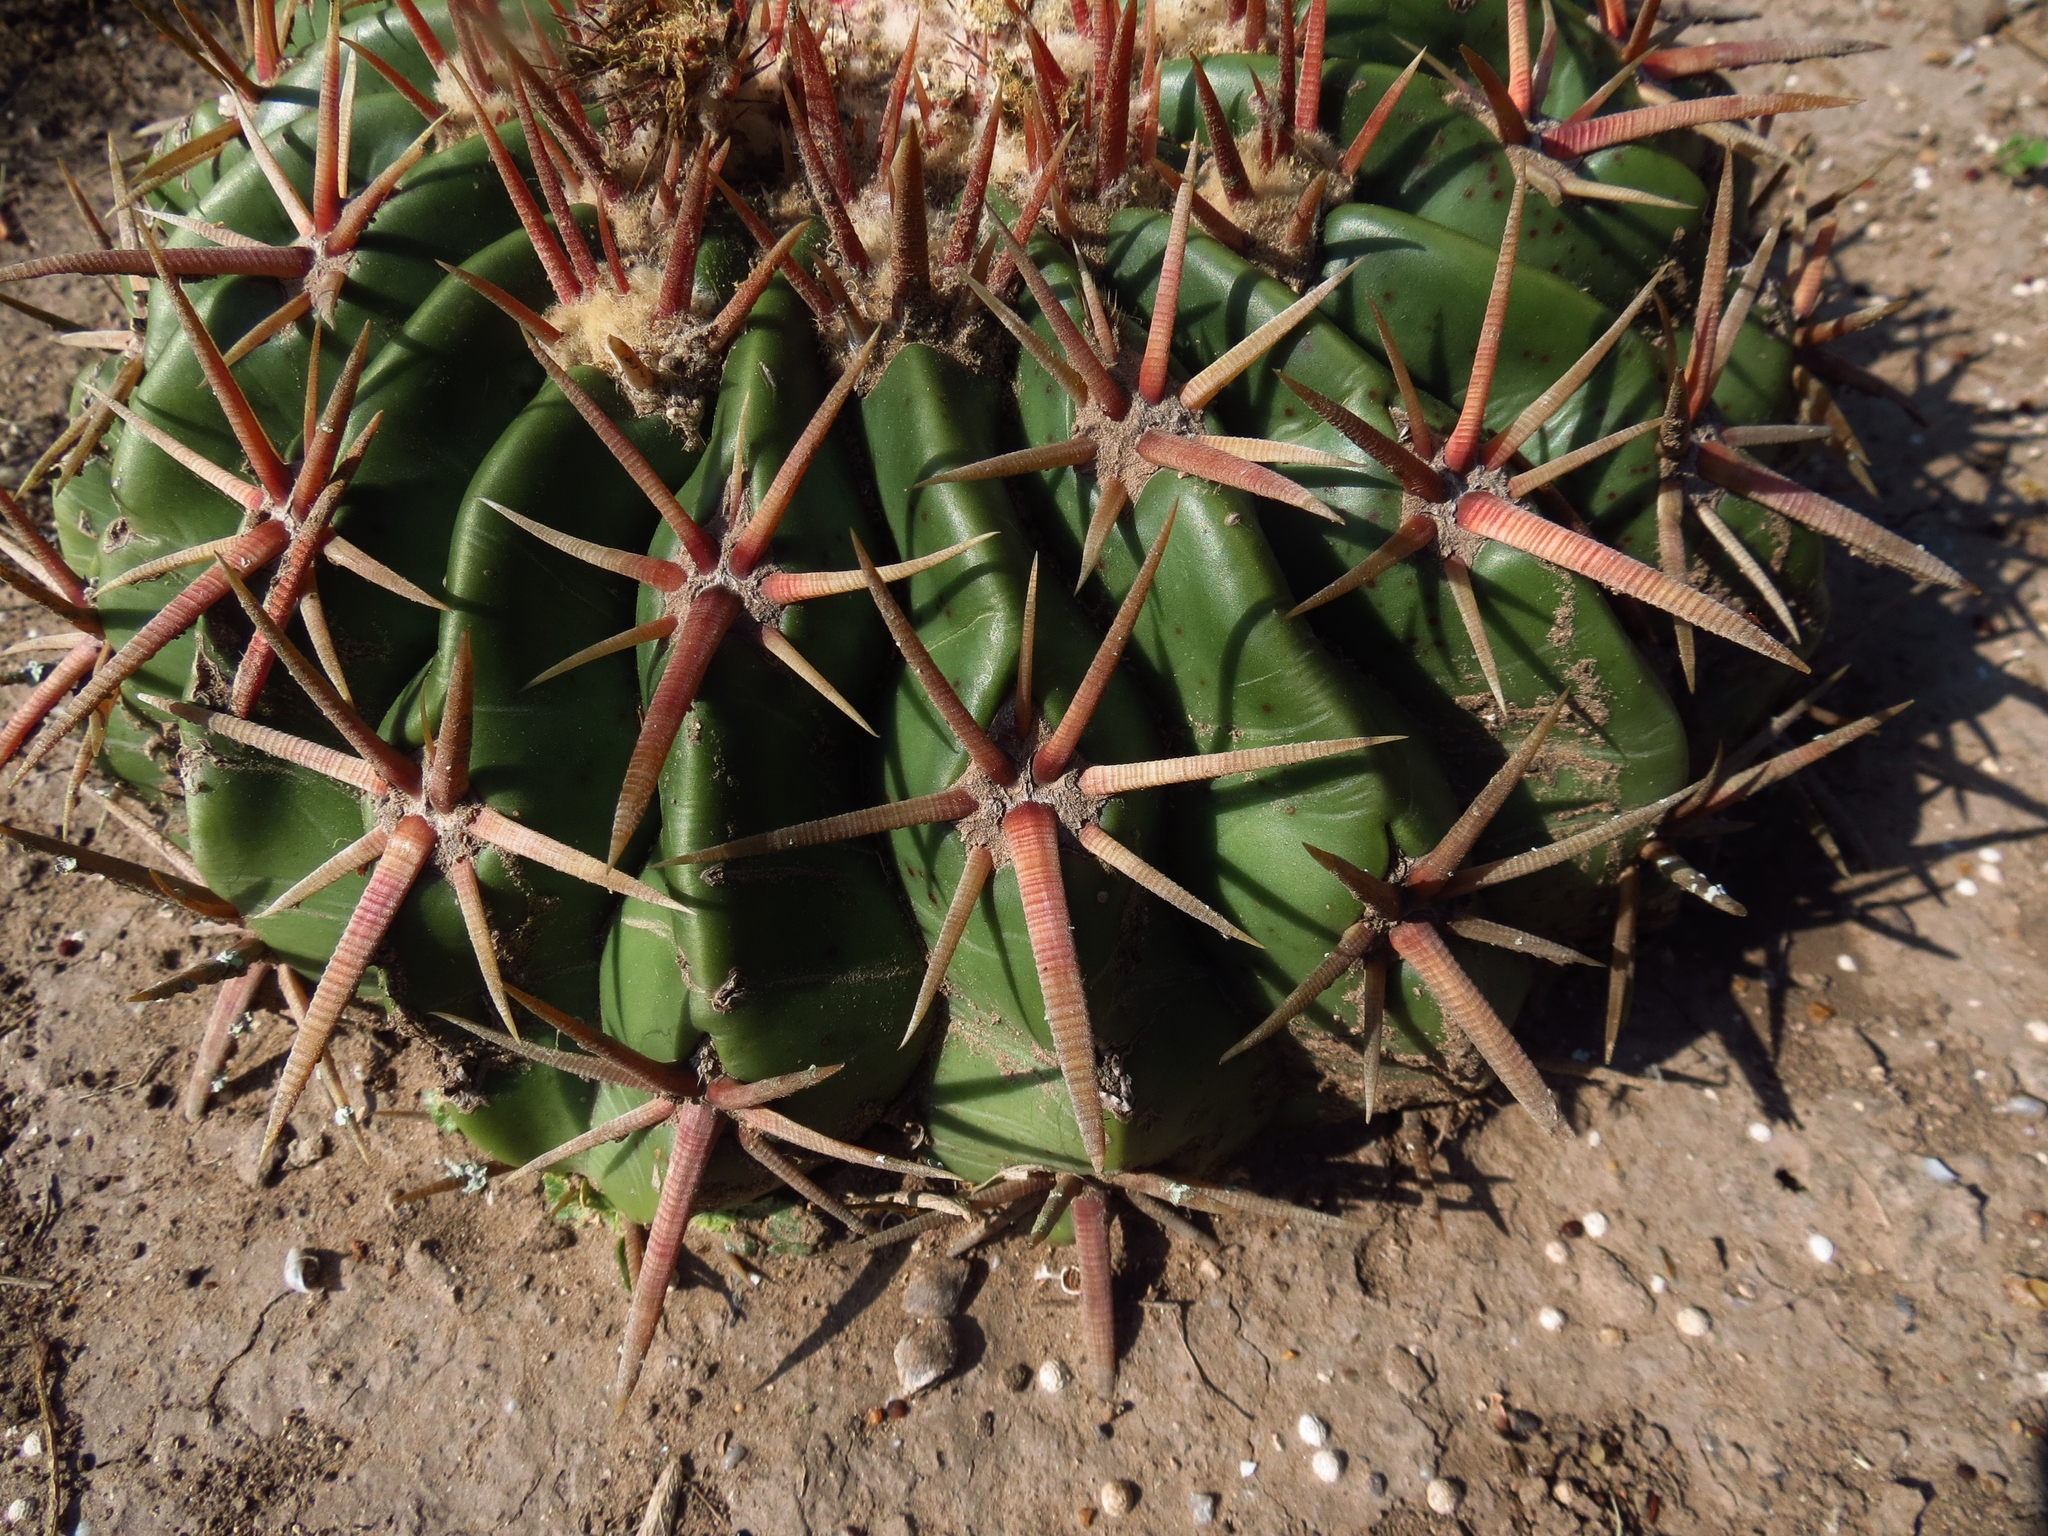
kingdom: Plantae
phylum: Tracheophyta
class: Magnoliopsida
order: Caryophyllales
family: Cactaceae
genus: Echinocactus
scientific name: Echinocactus texensis
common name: Devil's pincushion
